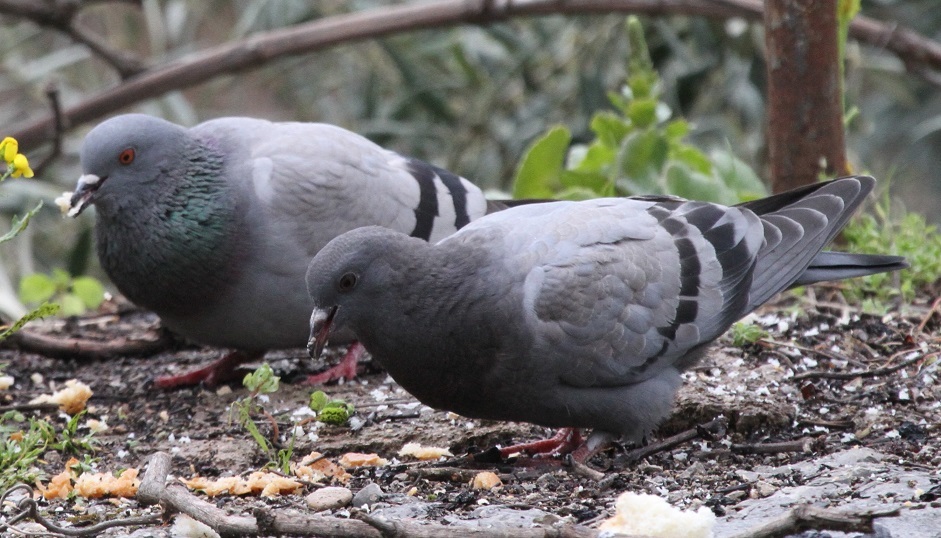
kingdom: Animalia
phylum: Chordata
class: Aves
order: Columbiformes
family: Columbidae
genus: Columba
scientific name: Columba livia
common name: Rock pigeon
